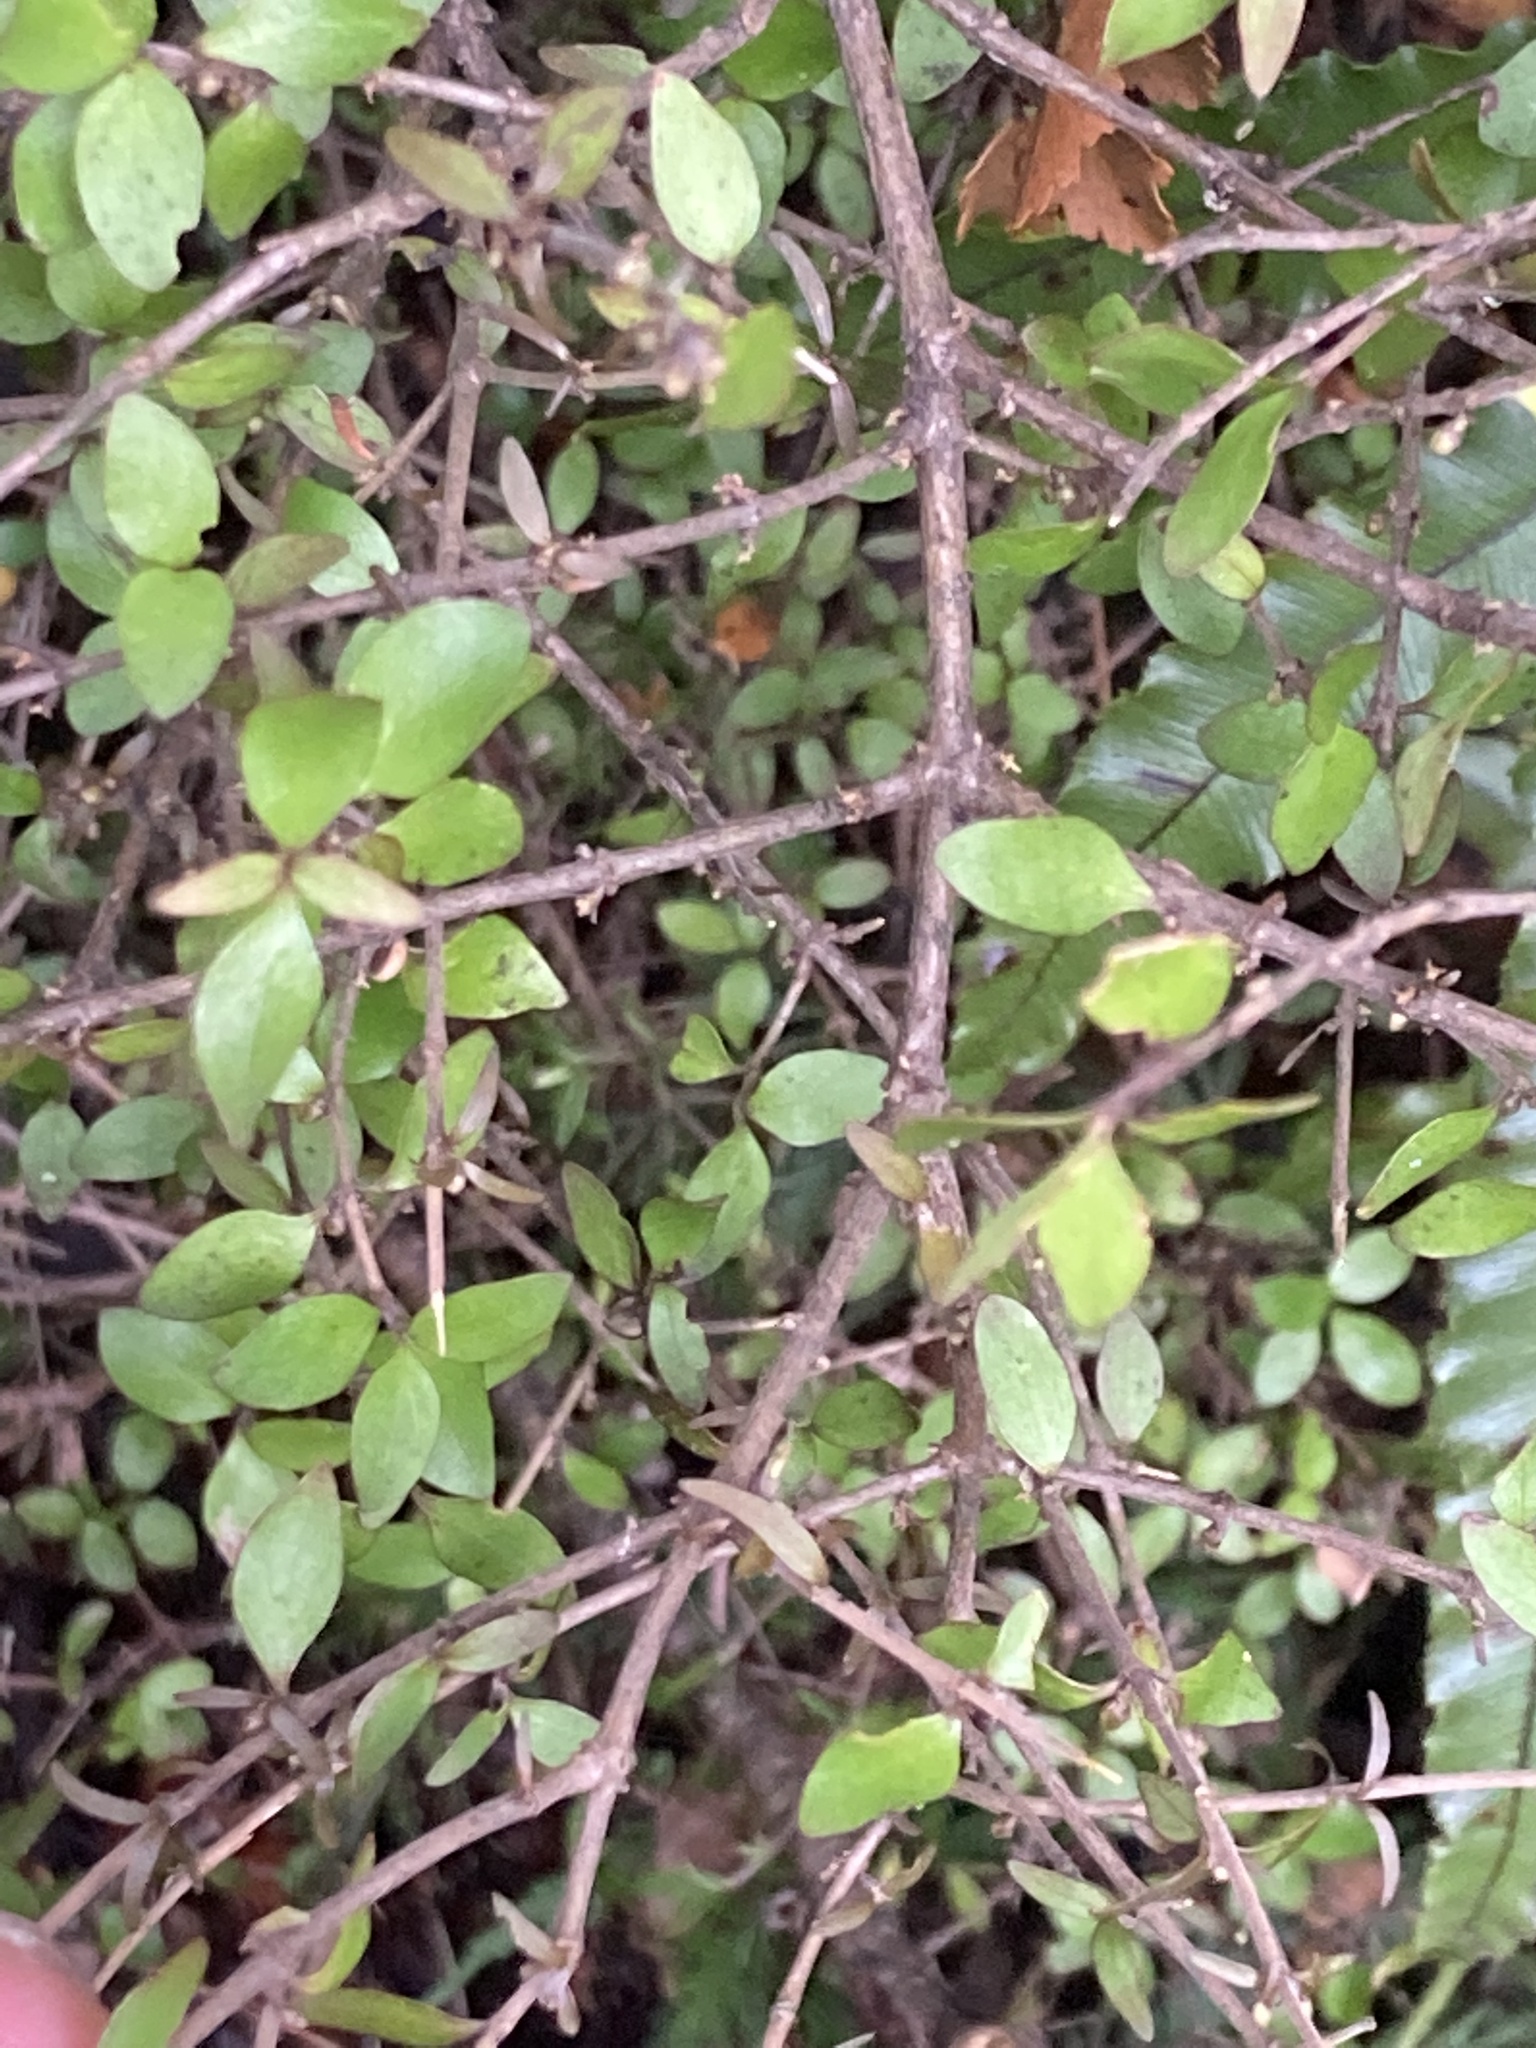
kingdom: Plantae
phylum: Tracheophyta
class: Magnoliopsida
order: Gentianales
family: Rubiaceae
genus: Coprosma
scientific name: Coprosma rhamnoides
